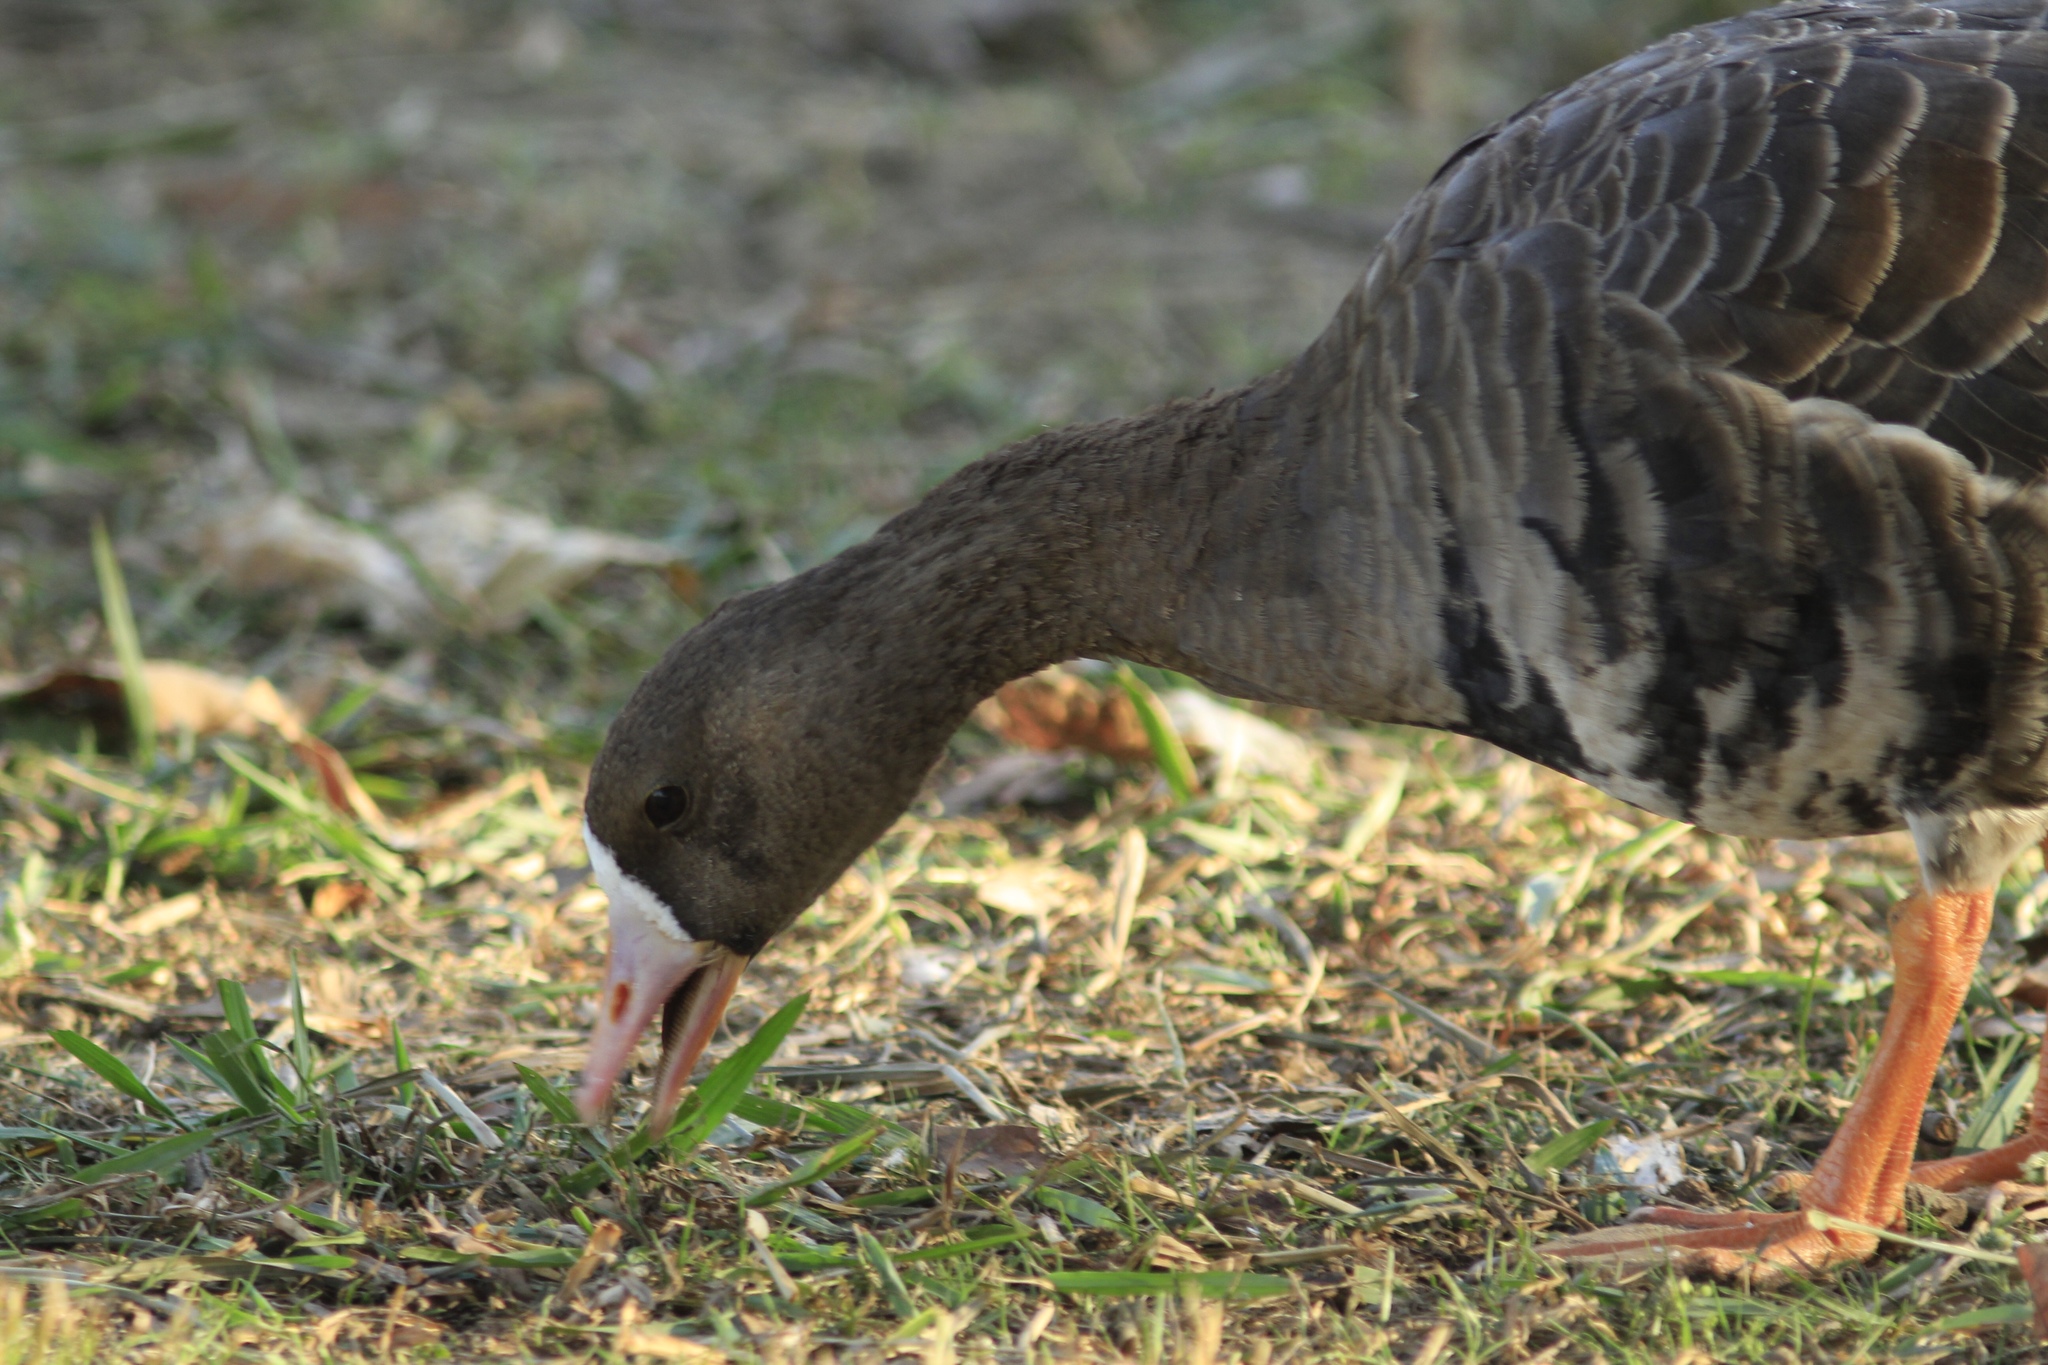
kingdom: Animalia
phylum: Chordata
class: Aves
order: Anseriformes
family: Anatidae
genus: Anser
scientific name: Anser albifrons
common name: Greater white-fronted goose
